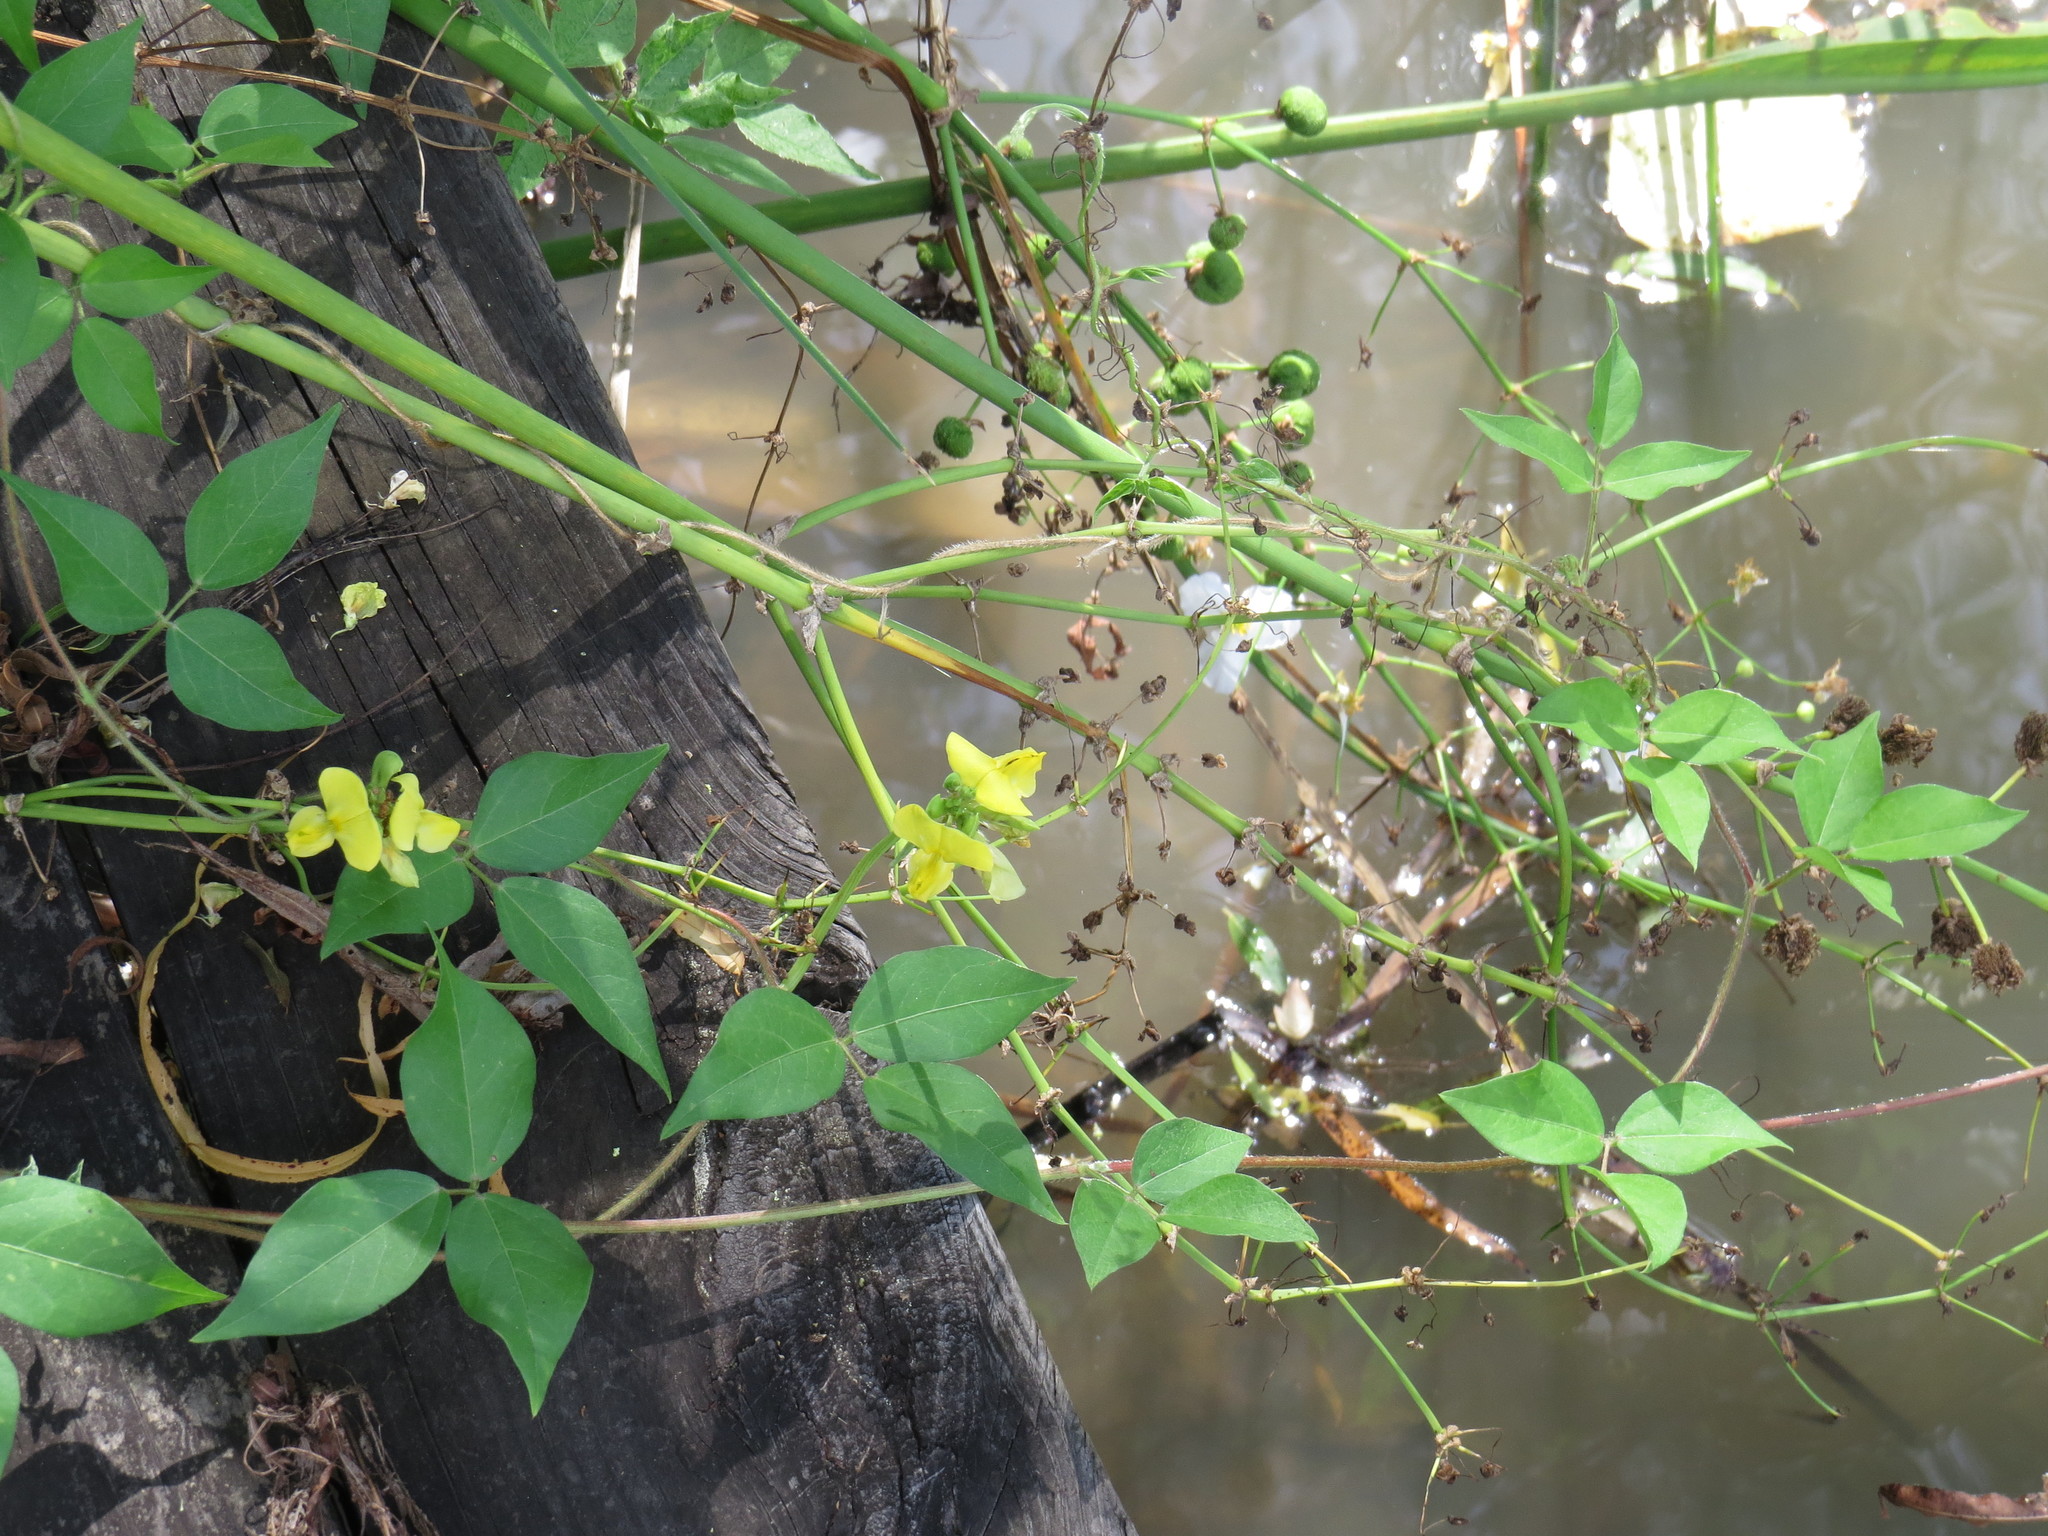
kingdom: Plantae
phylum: Tracheophyta
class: Magnoliopsida
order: Fabales
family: Fabaceae
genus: Vigna
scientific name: Vigna luteola
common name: Hairypod cowpea
